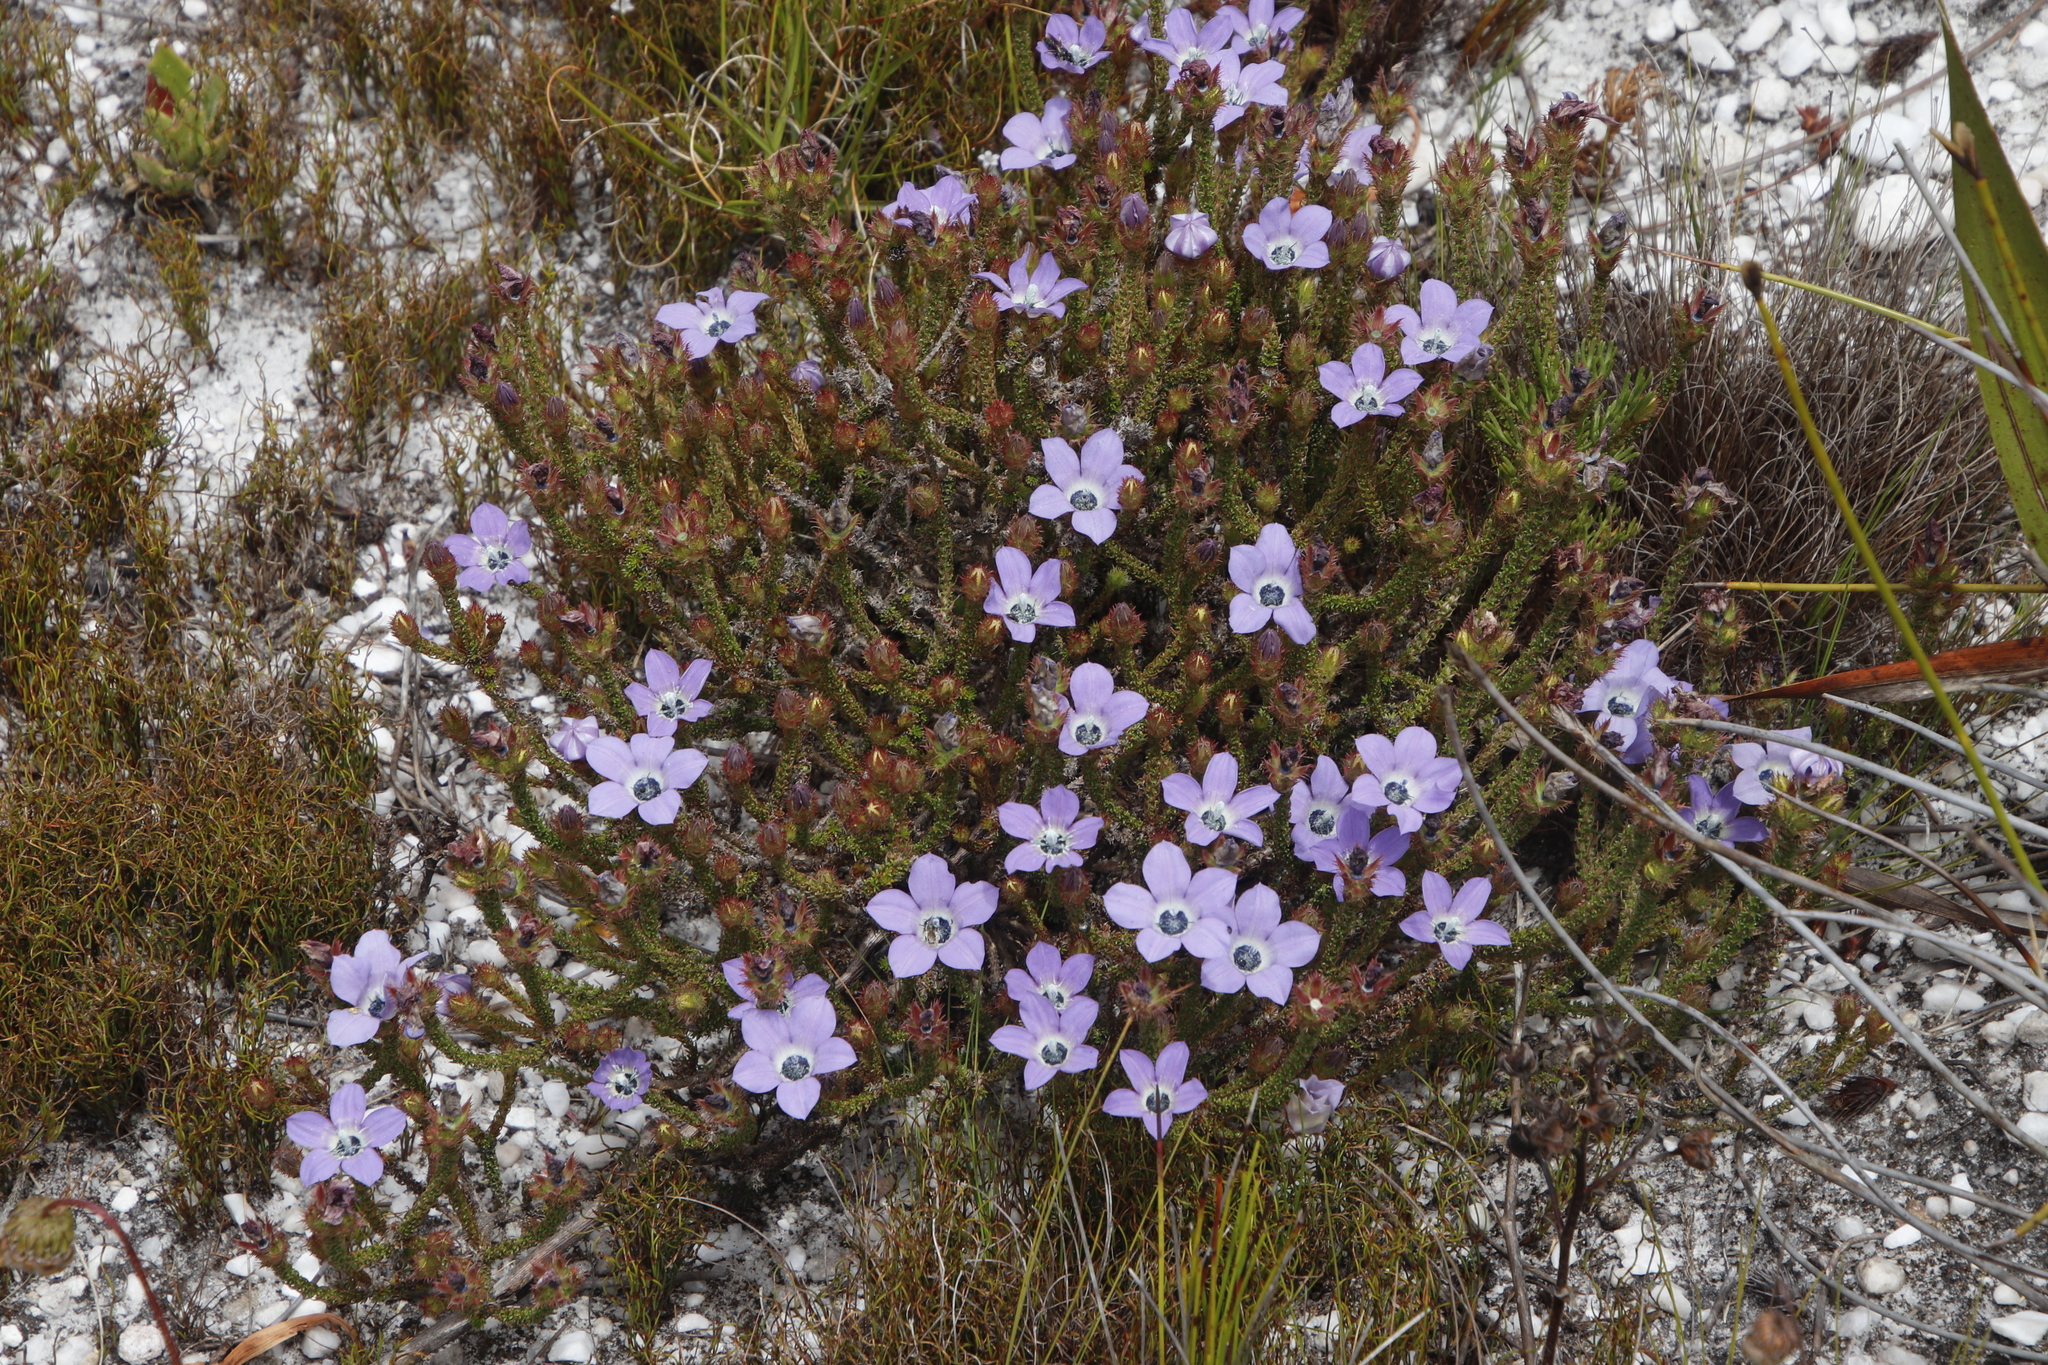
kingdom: Plantae
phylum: Tracheophyta
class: Magnoliopsida
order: Asterales
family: Campanulaceae
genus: Roella
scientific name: Roella triflora
